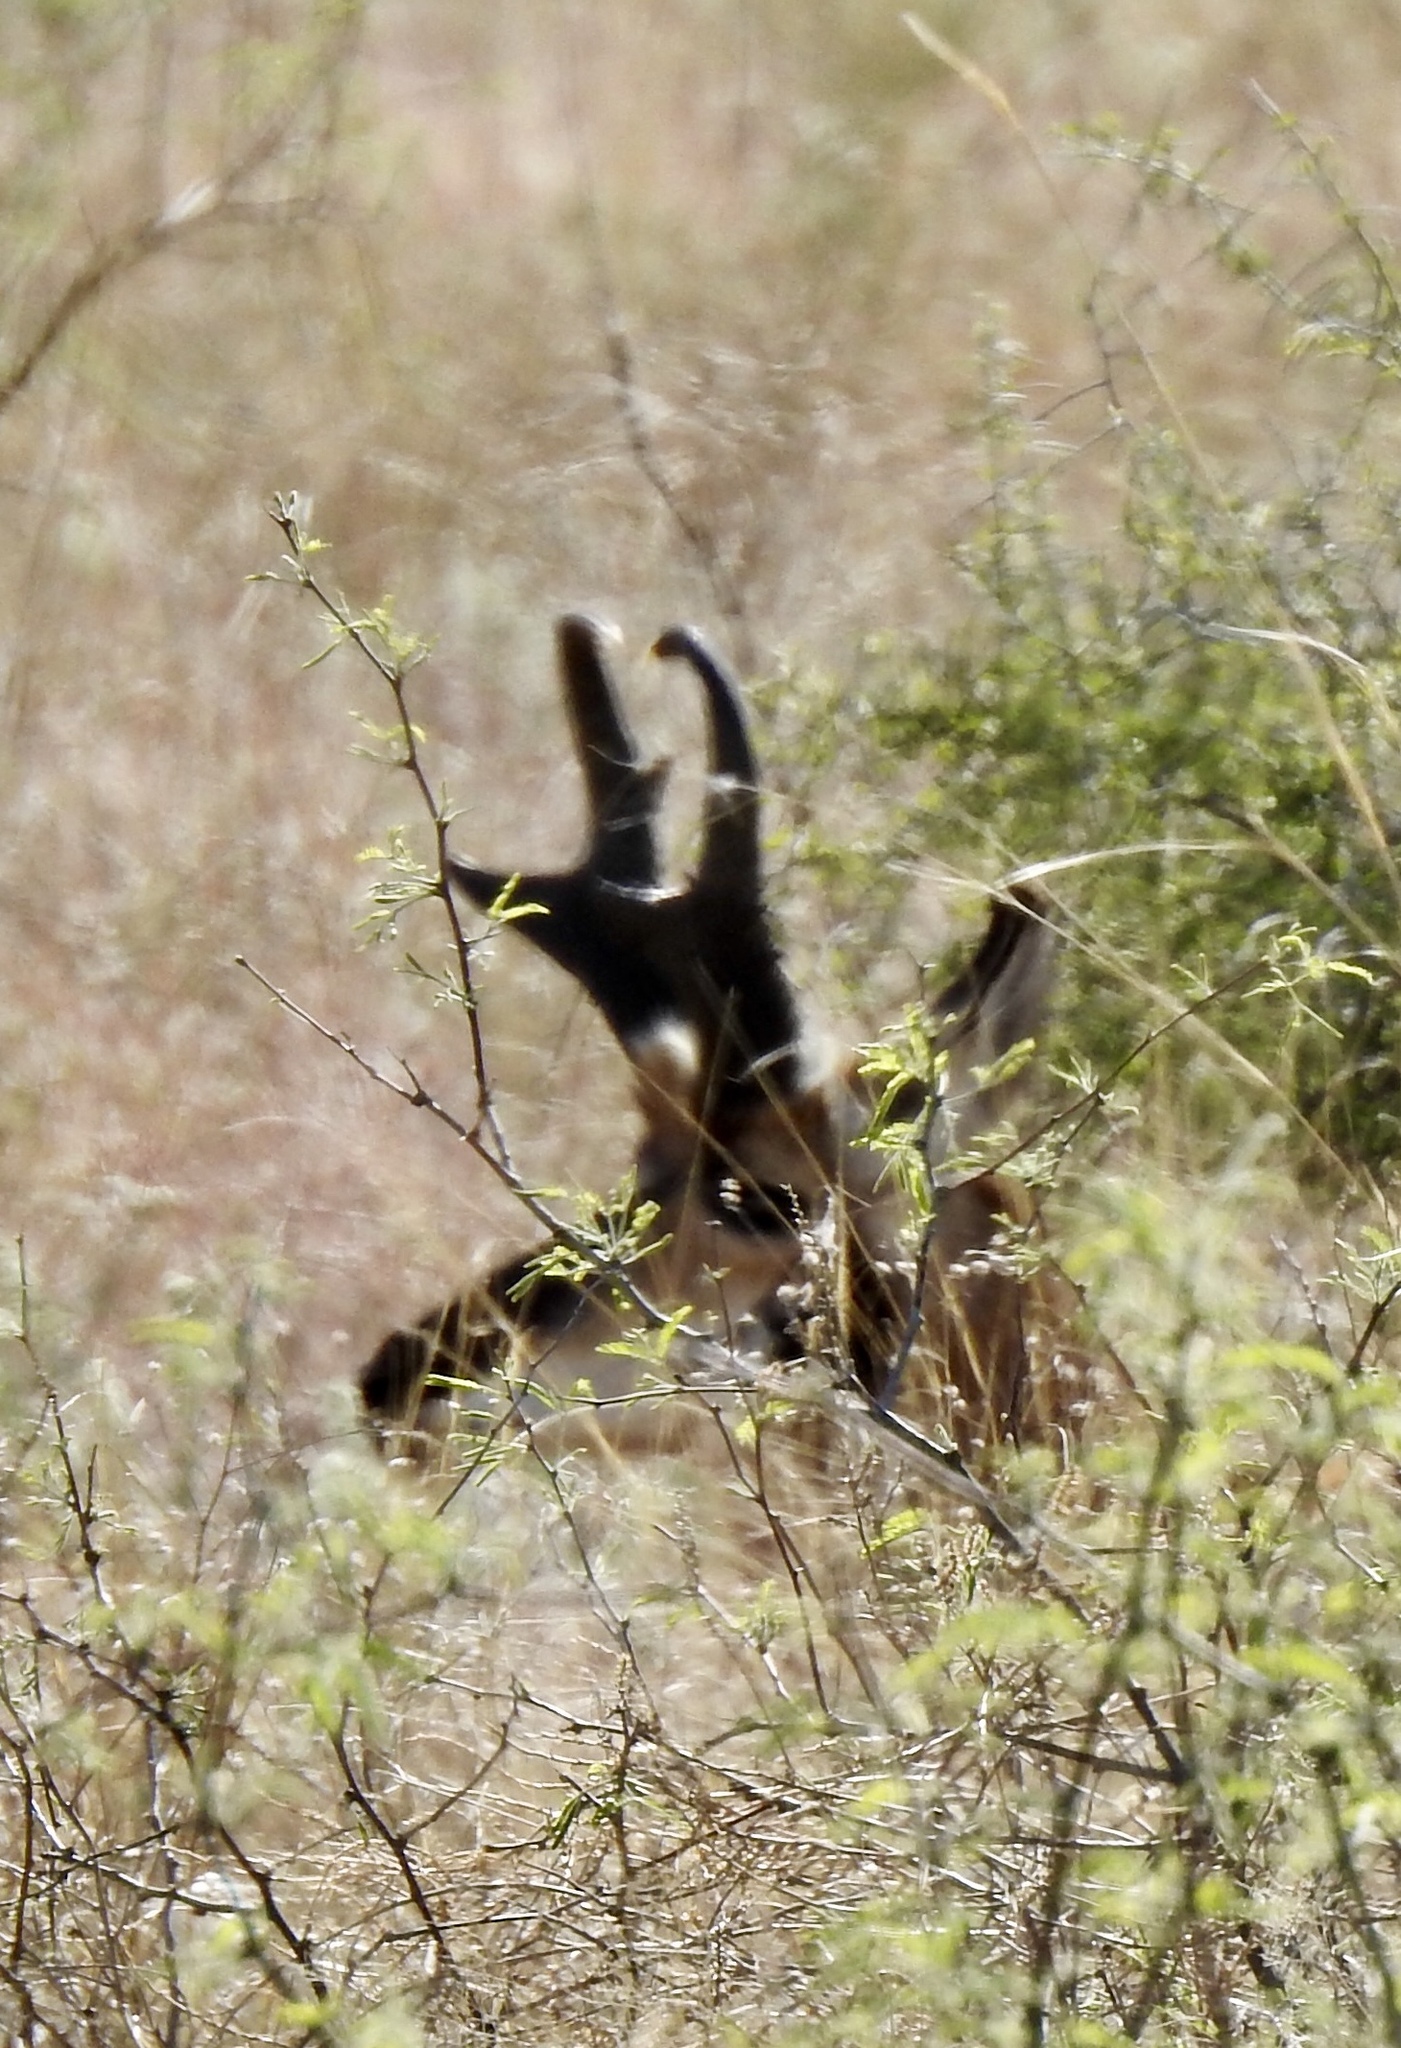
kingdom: Animalia
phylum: Chordata
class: Mammalia
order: Artiodactyla
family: Antilocapridae
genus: Antilocapra
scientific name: Antilocapra americana
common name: Pronghorn
